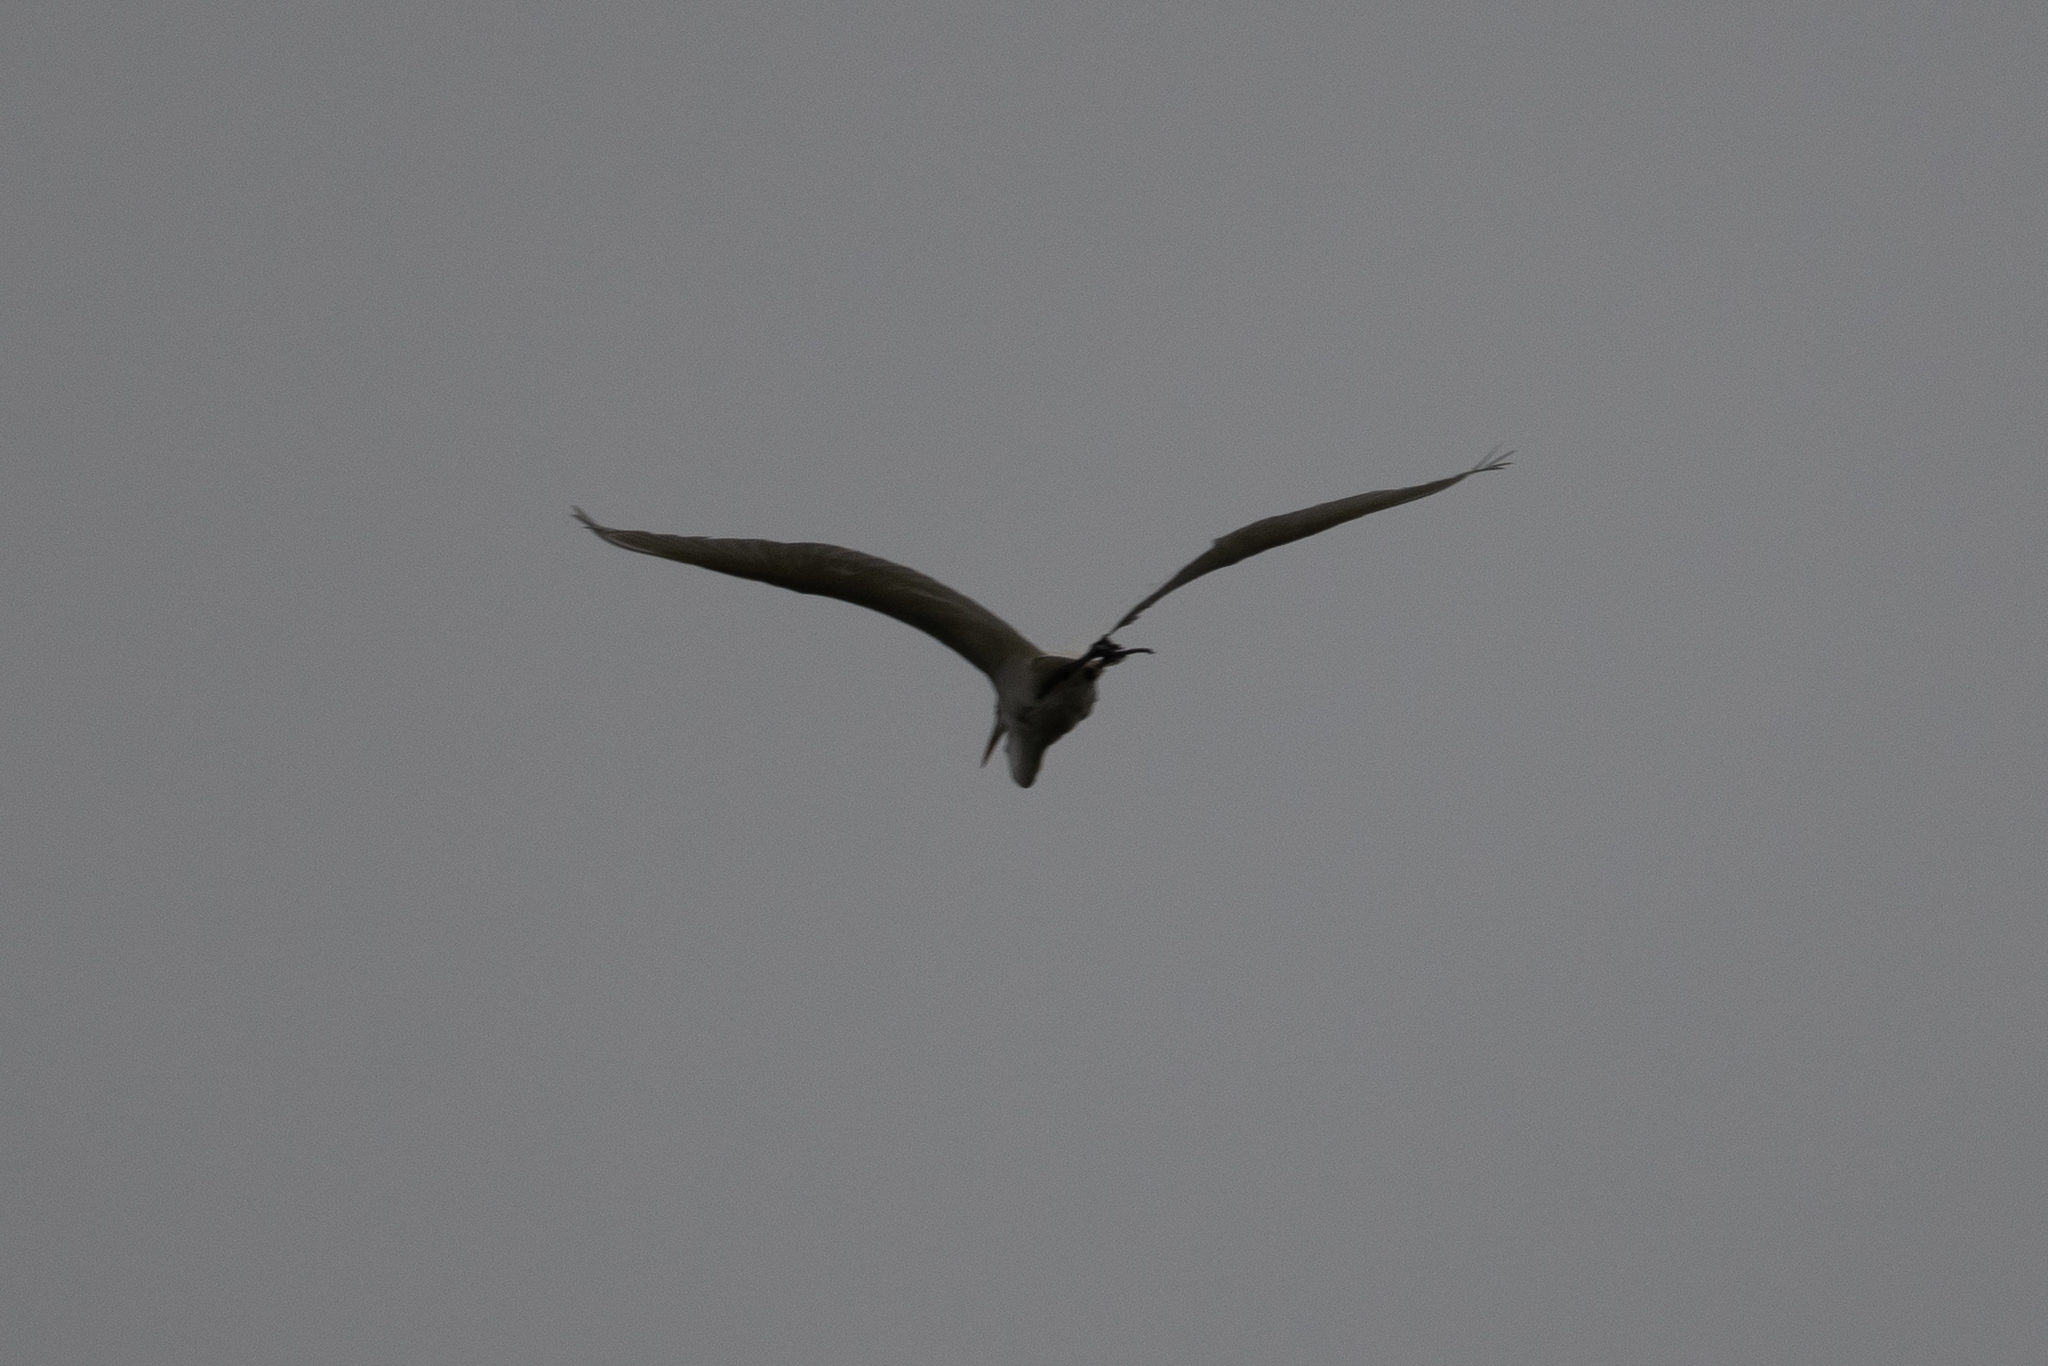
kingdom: Animalia
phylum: Chordata
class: Aves
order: Pelecaniformes
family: Ardeidae
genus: Ardea
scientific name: Ardea alba
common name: Great egret
